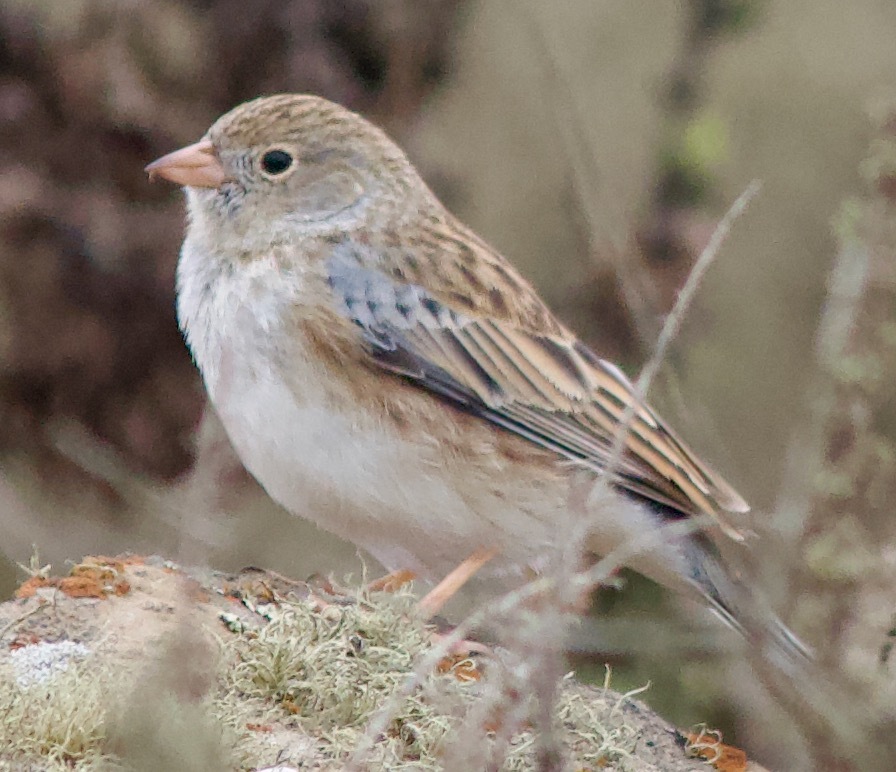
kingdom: Animalia
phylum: Chordata
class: Aves
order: Passeriformes
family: Thraupidae
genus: Porphyrospiza
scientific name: Porphyrospiza alaudina
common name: Band-tailed sierra finch
